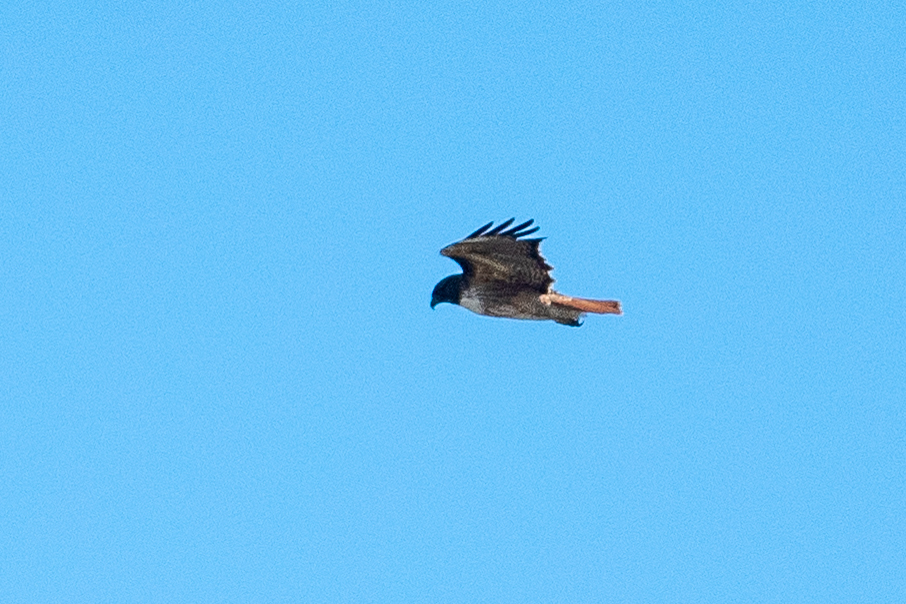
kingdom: Animalia
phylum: Chordata
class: Aves
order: Accipitriformes
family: Accipitridae
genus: Buteo
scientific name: Buteo jamaicensis
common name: Red-tailed hawk
